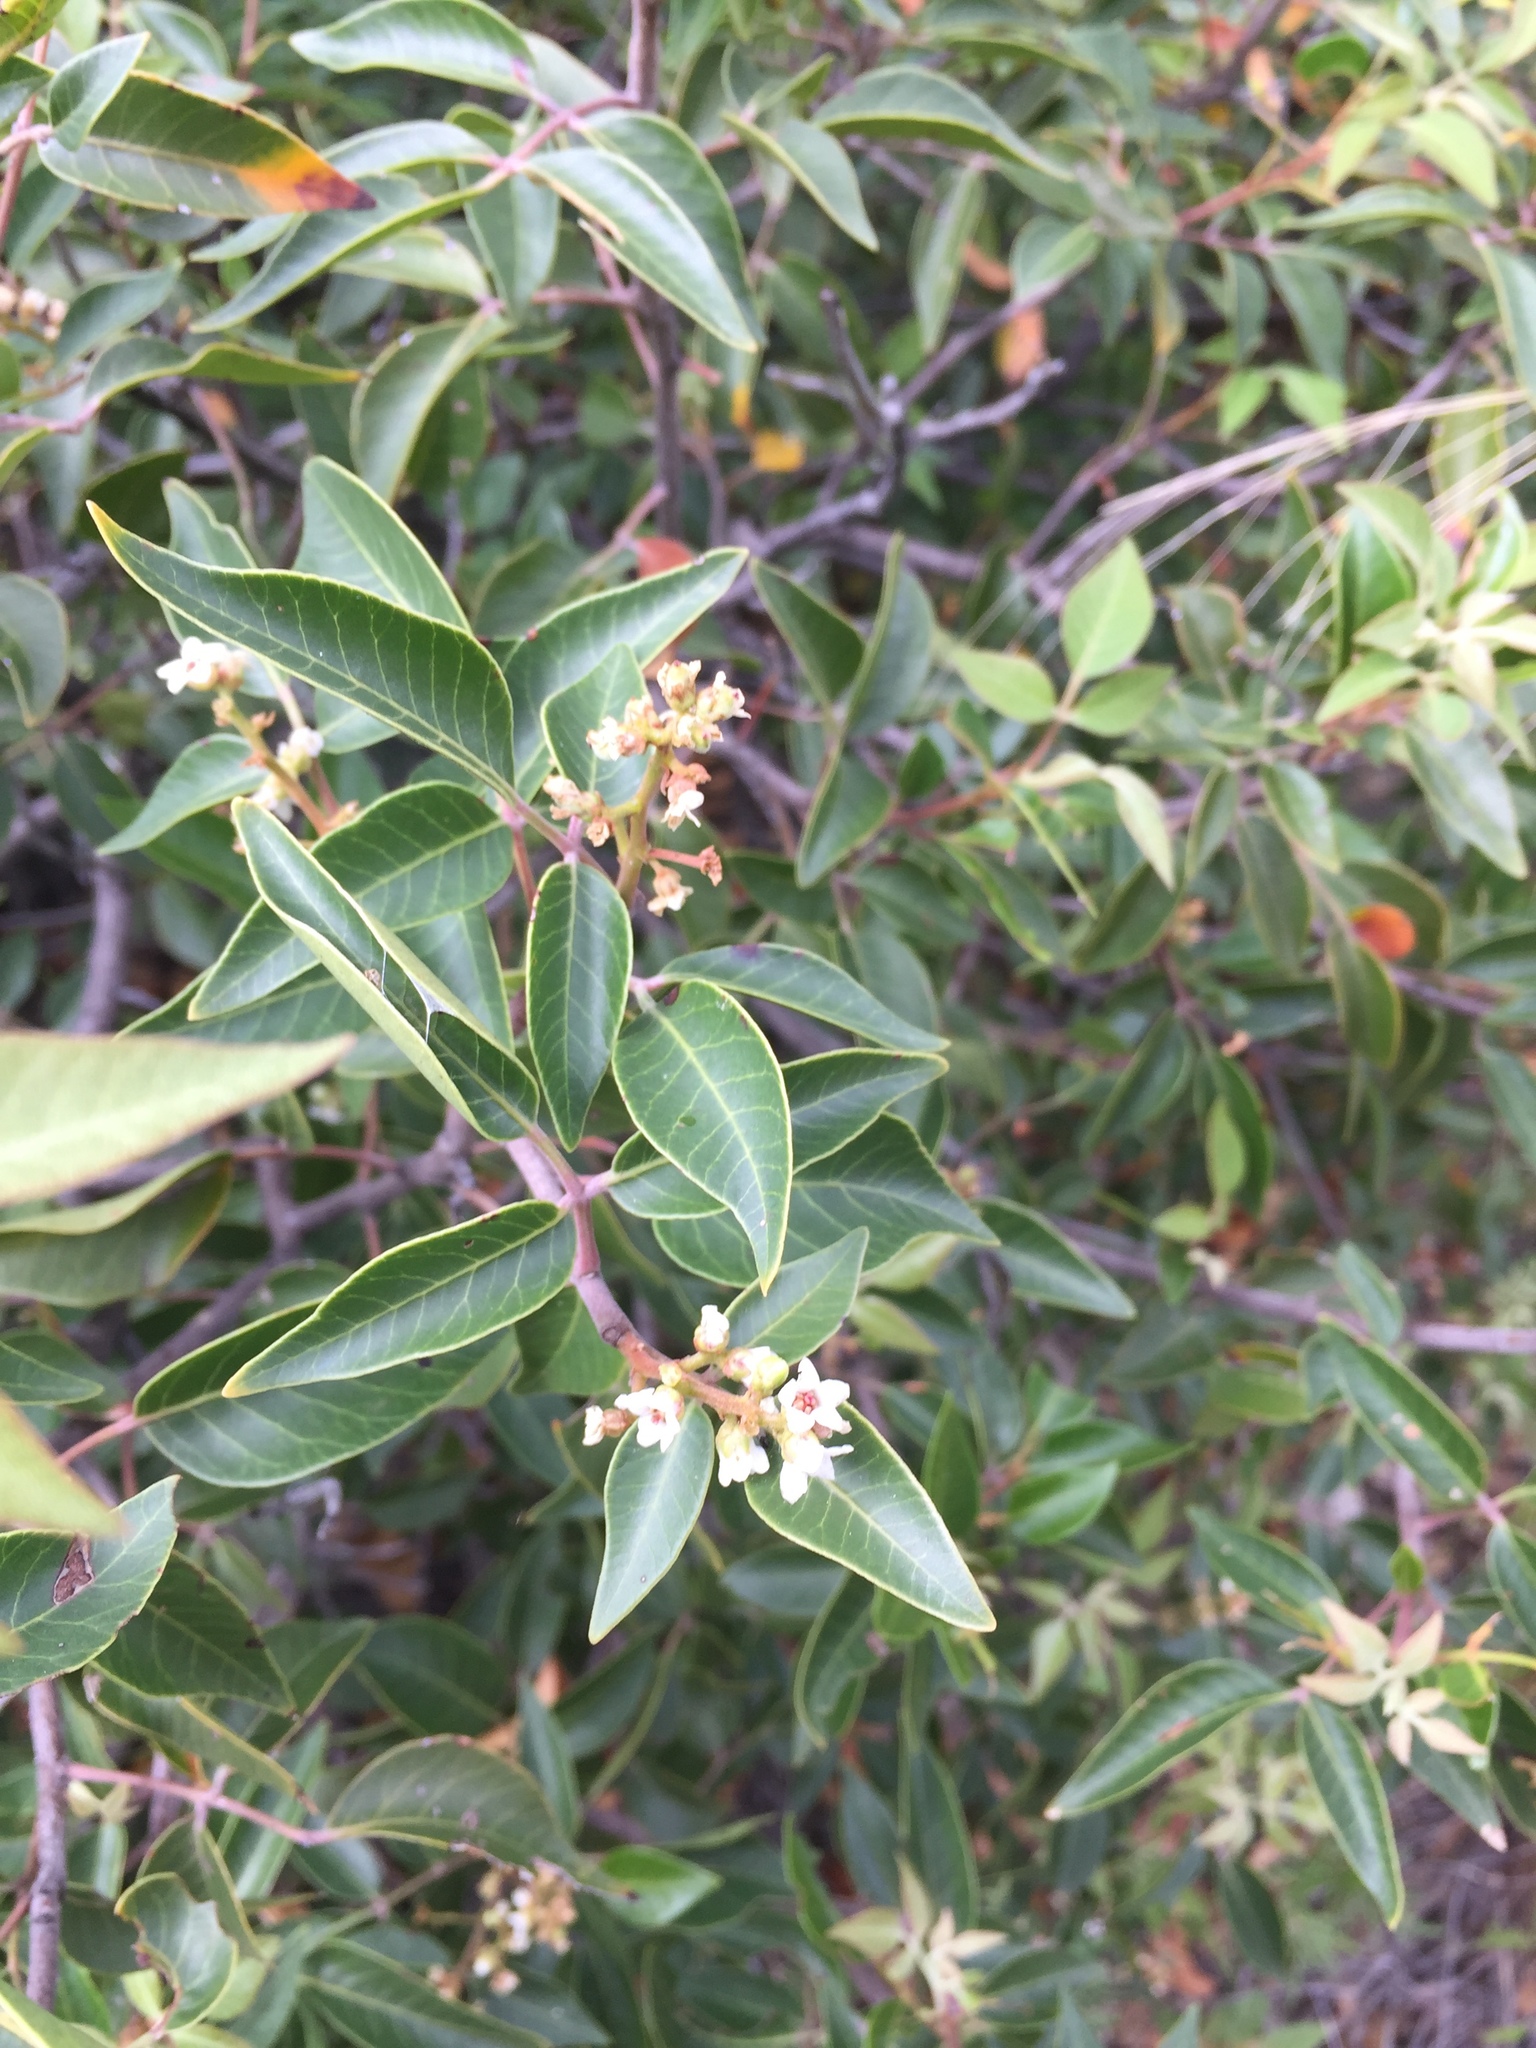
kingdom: Plantae
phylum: Tracheophyta
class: Magnoliopsida
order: Sapindales
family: Anacardiaceae
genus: Rhus
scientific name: Rhus virens
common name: Evergreen sumac
